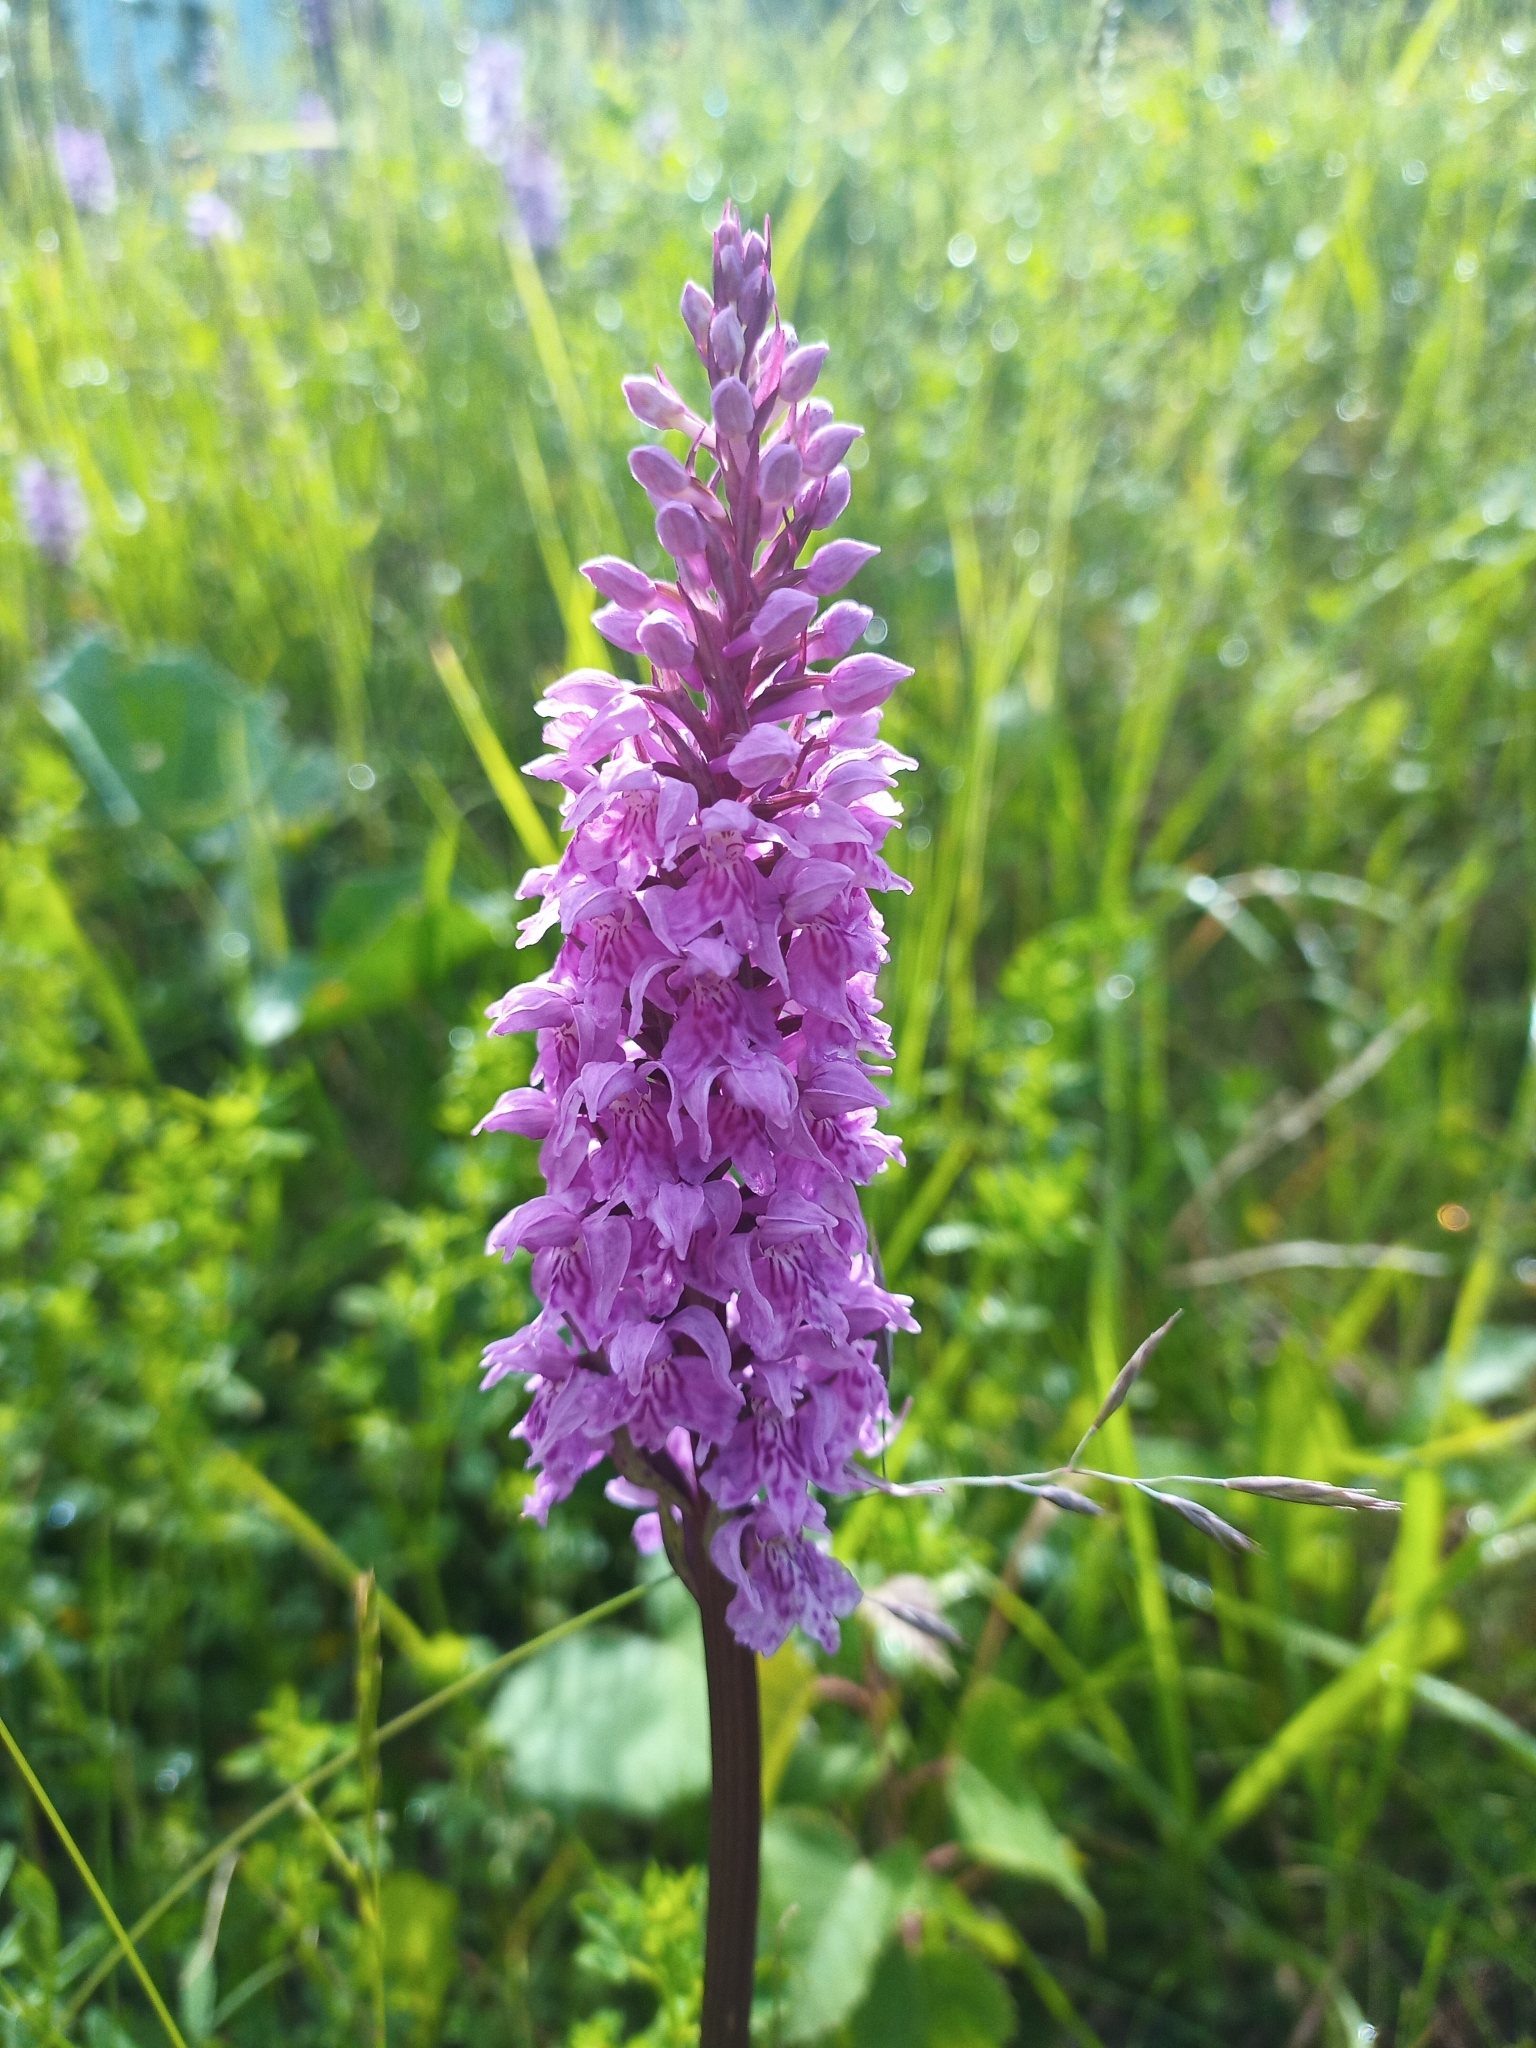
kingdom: Plantae
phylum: Tracheophyta
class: Liliopsida
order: Asparagales
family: Orchidaceae
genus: Dactylorhiza
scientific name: Dactylorhiza maculata
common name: Heath spotted-orchid
